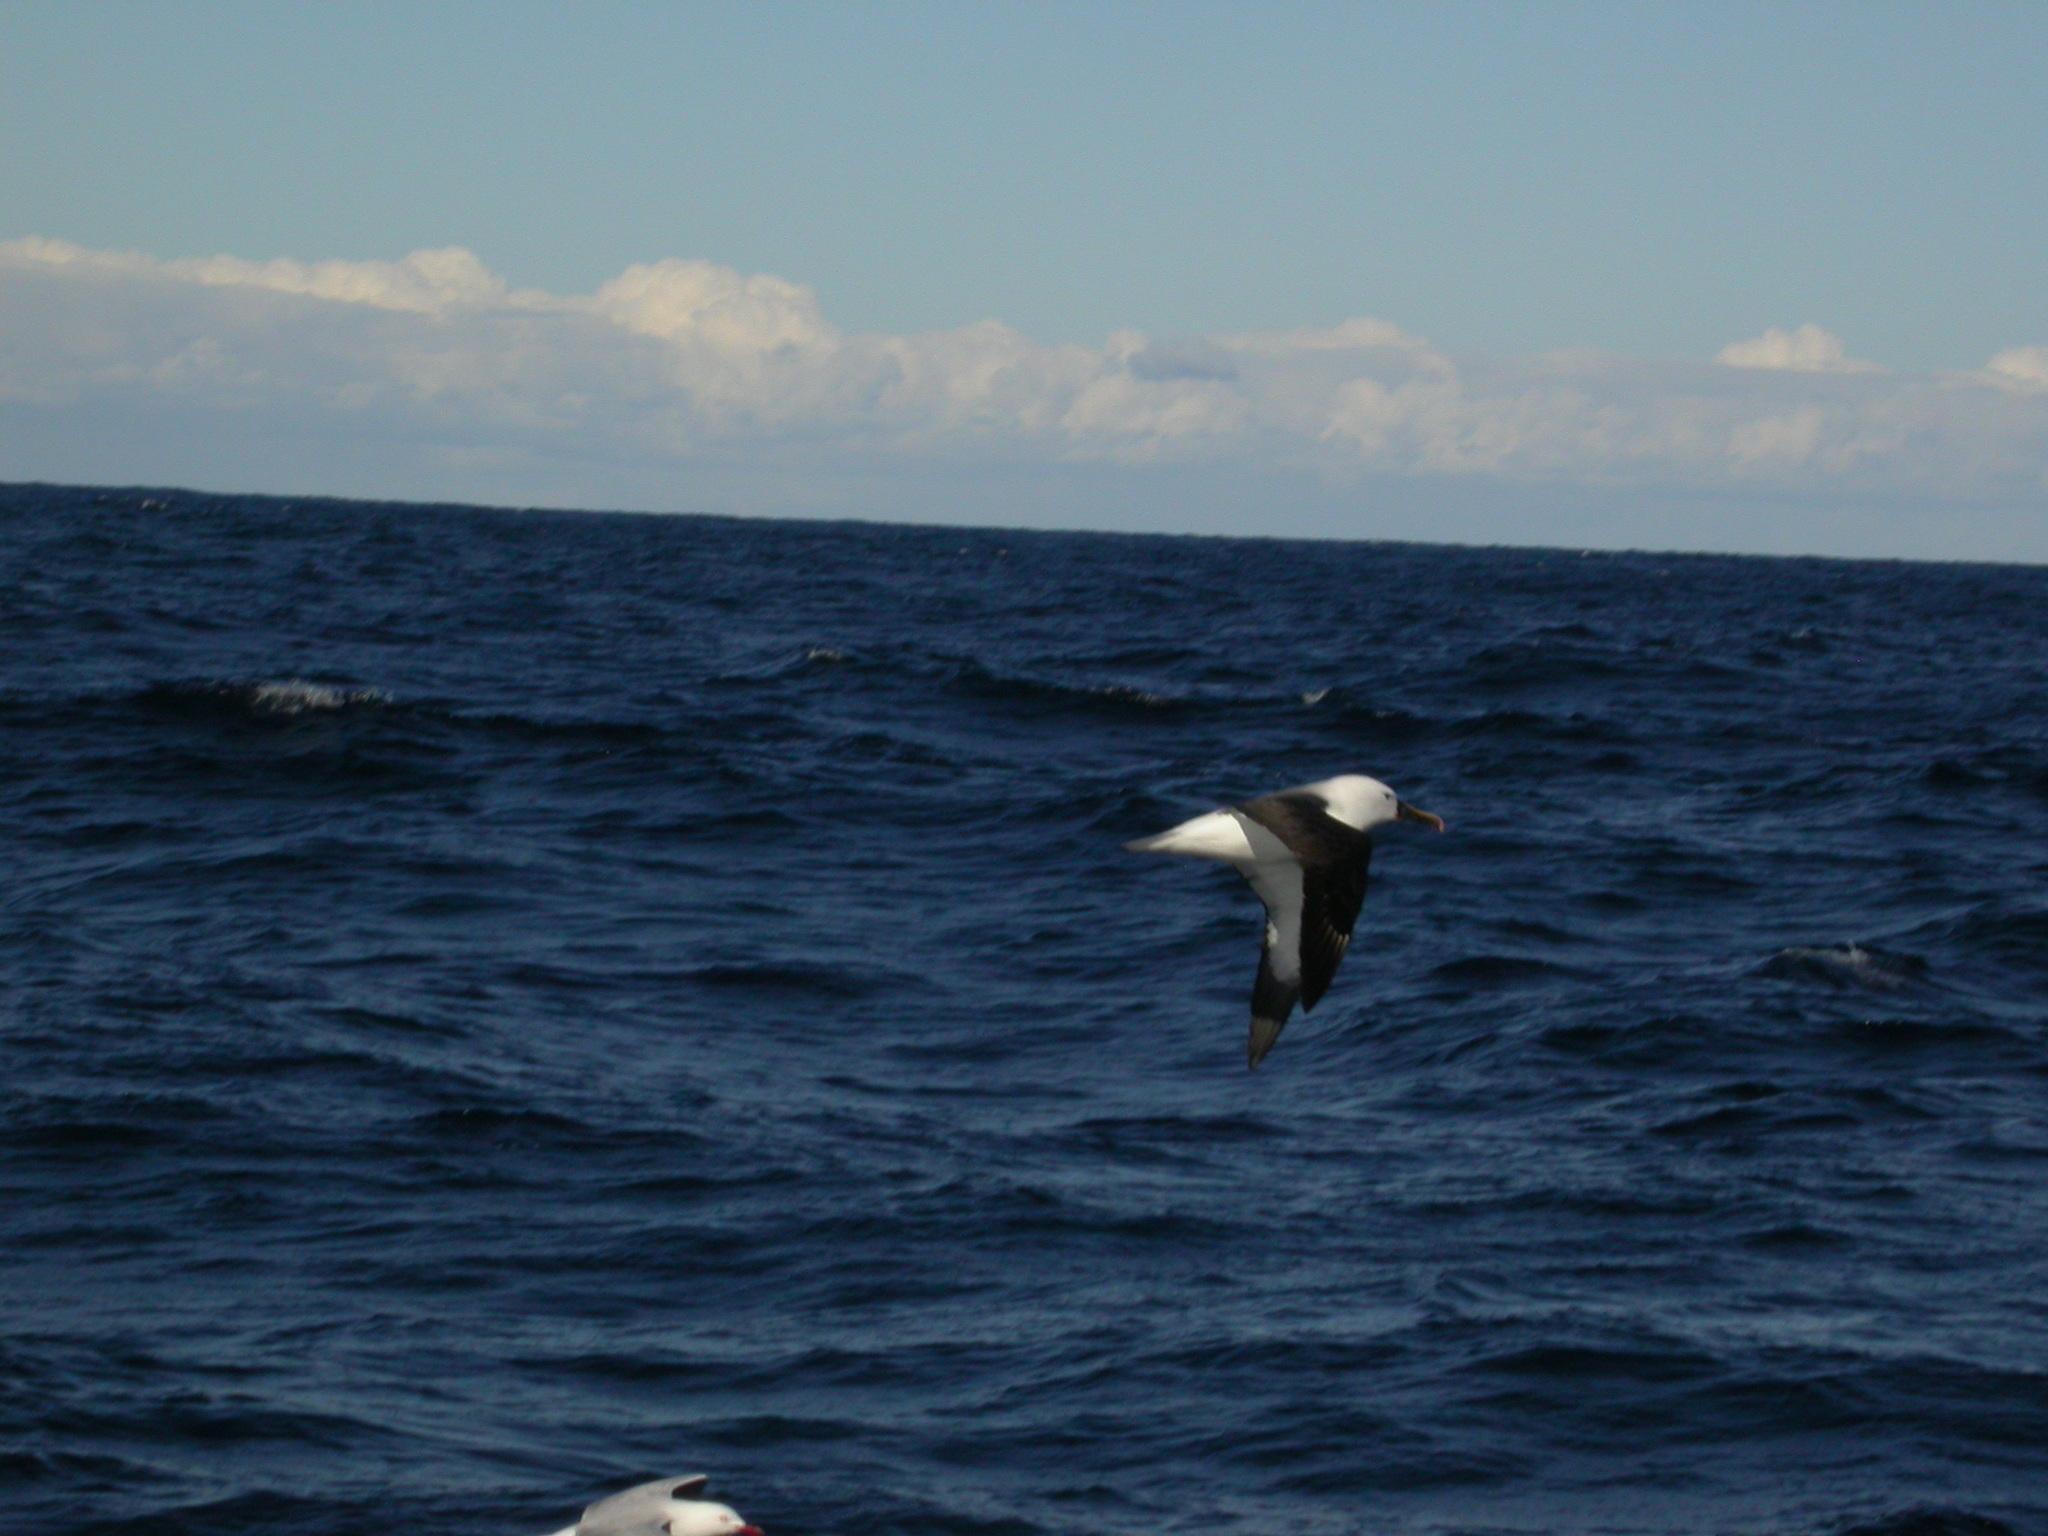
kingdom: Animalia
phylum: Chordata
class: Aves
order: Procellariiformes
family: Diomedeidae
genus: Thalassarche
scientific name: Thalassarche carteri
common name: Indian yellow-nosed albatross
